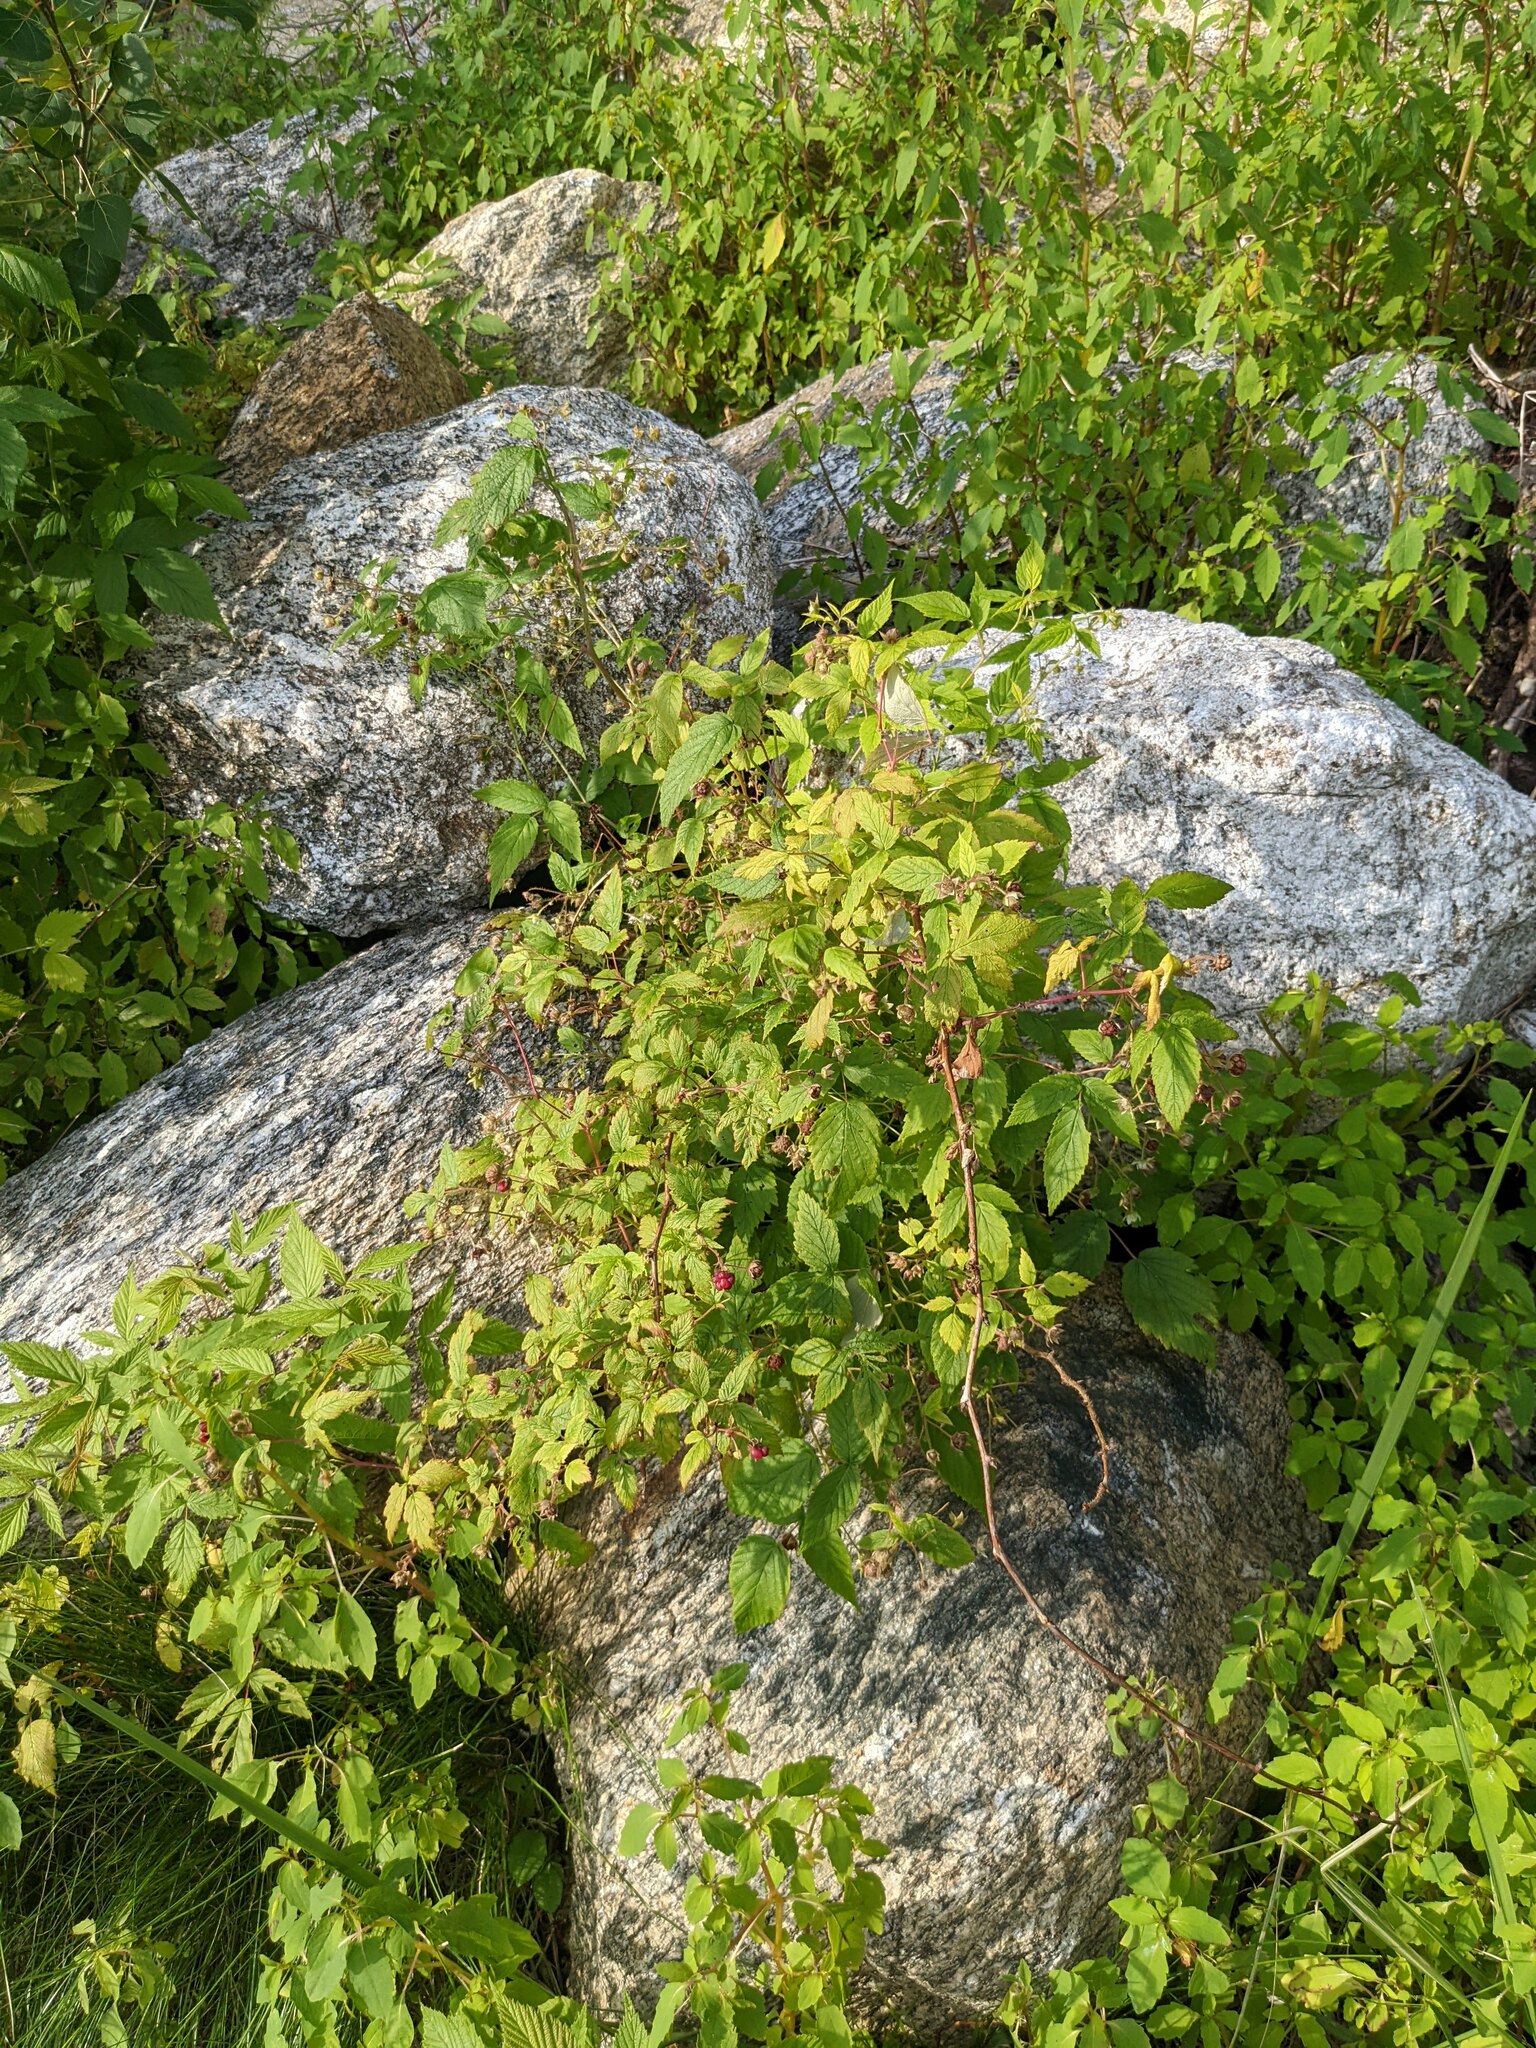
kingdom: Plantae
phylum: Tracheophyta
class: Magnoliopsida
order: Rosales
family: Rosaceae
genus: Rubus
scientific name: Rubus idaeus
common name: Raspberry
